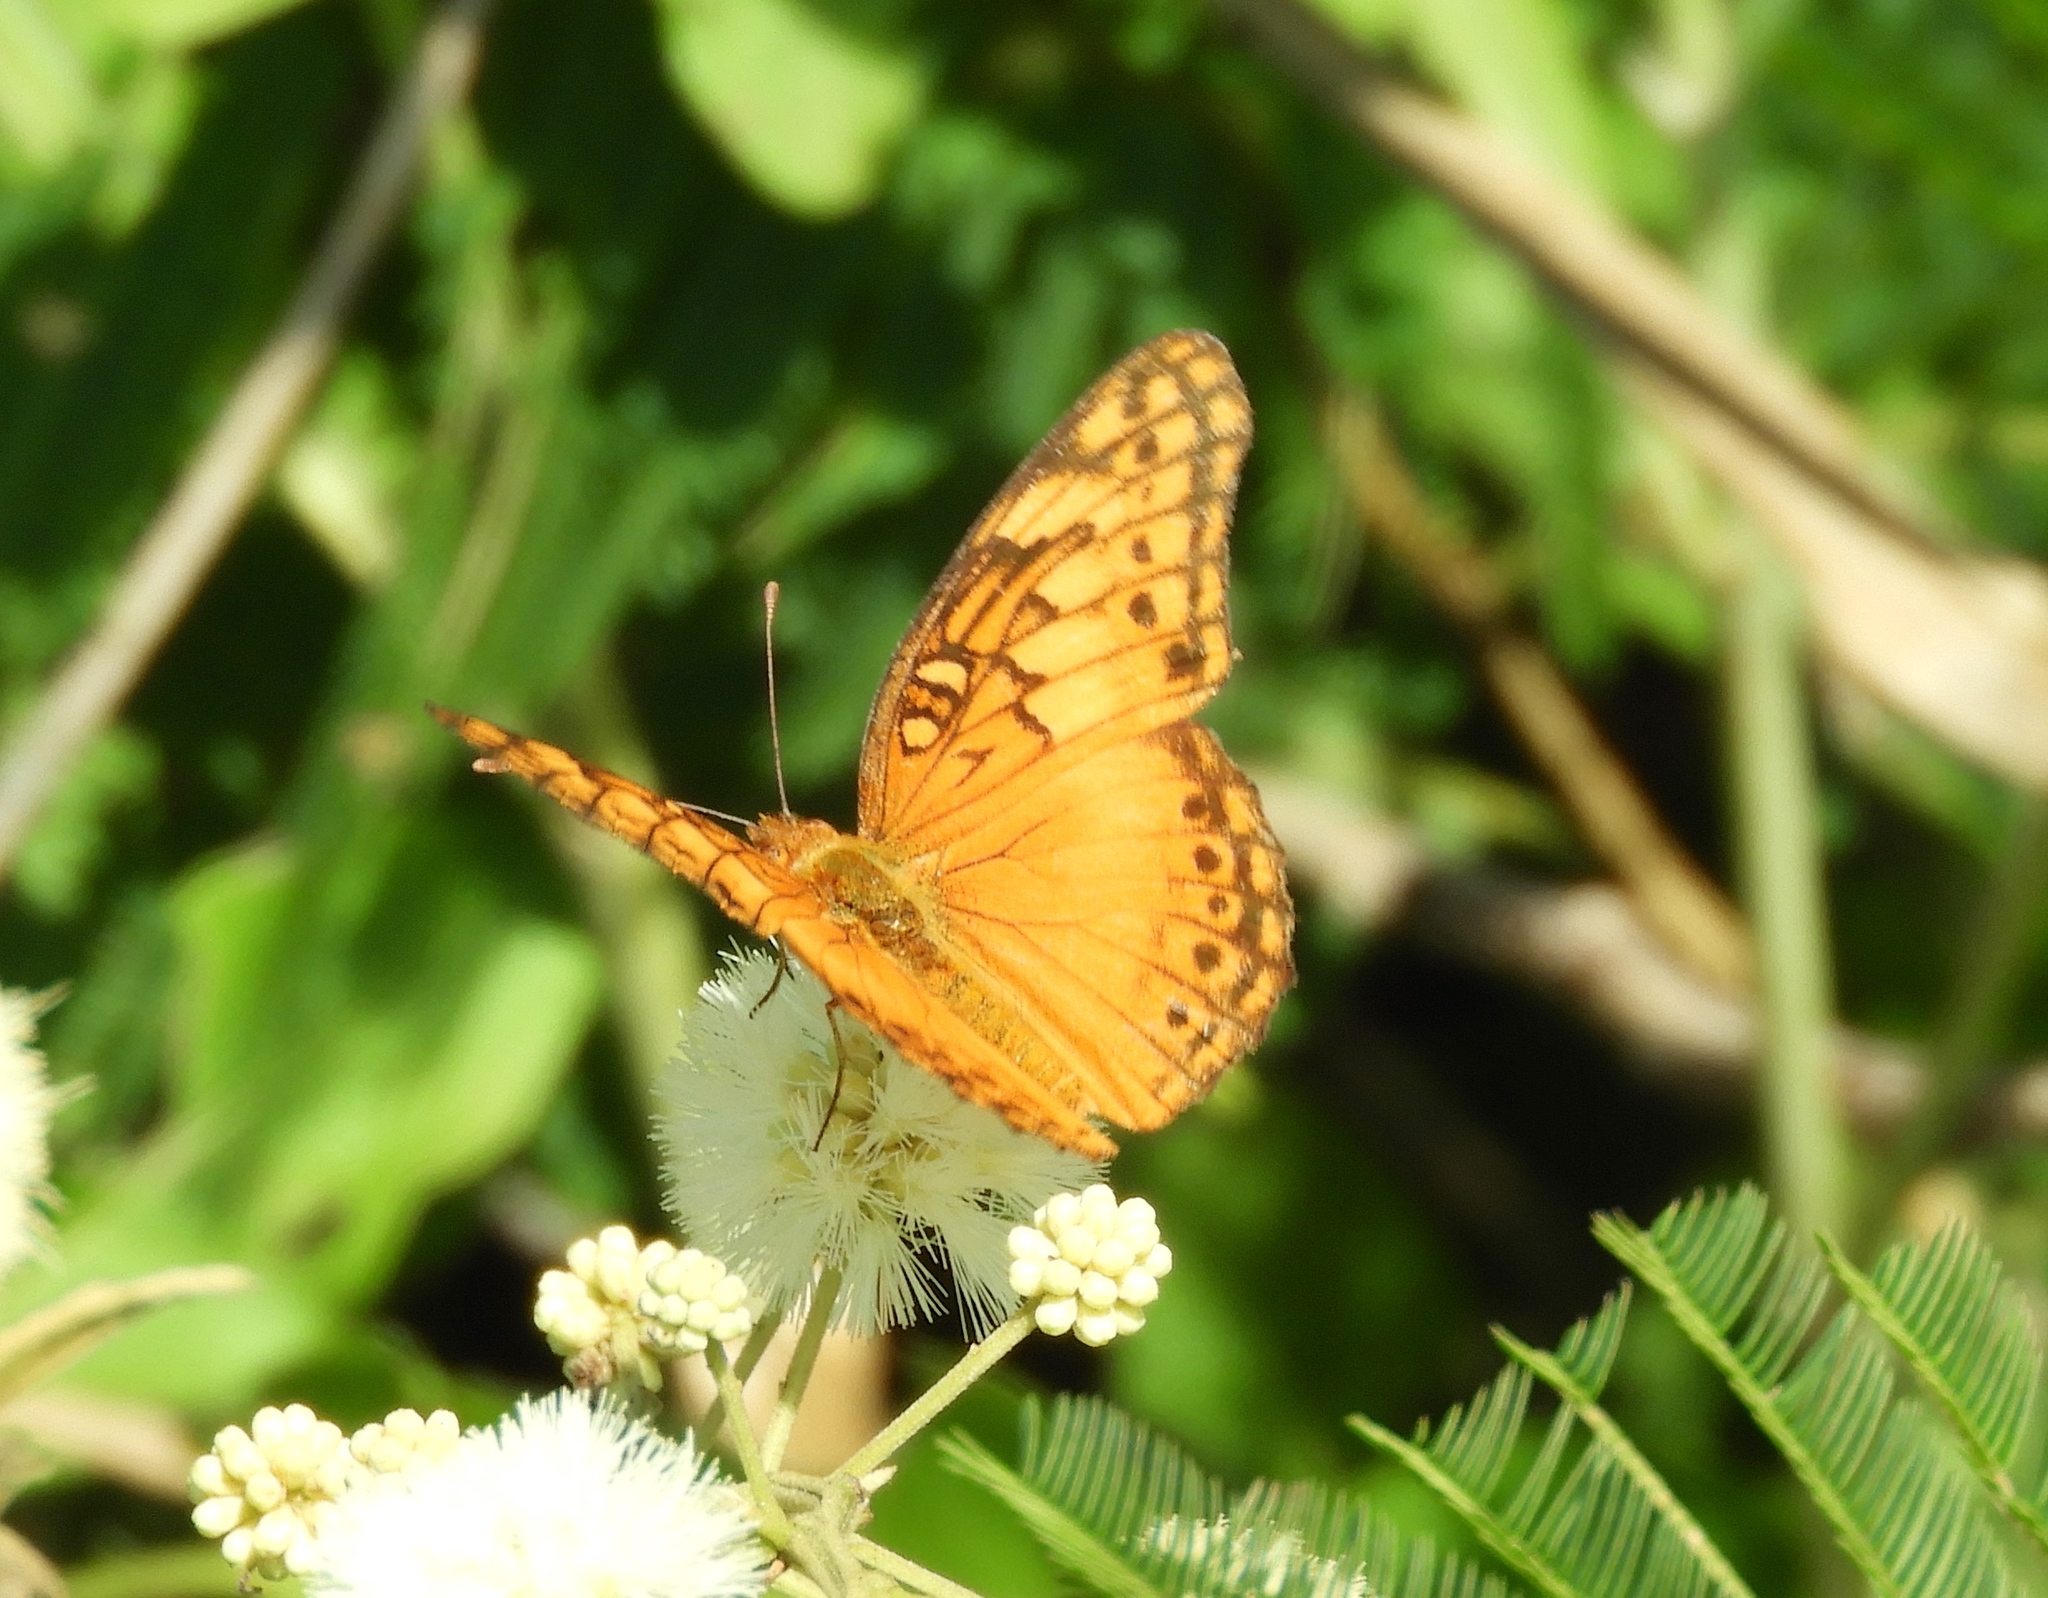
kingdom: Animalia
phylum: Arthropoda
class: Insecta
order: Lepidoptera
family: Nymphalidae
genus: Euptoieta
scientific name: Euptoieta hegesia
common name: Mexican fritillary
